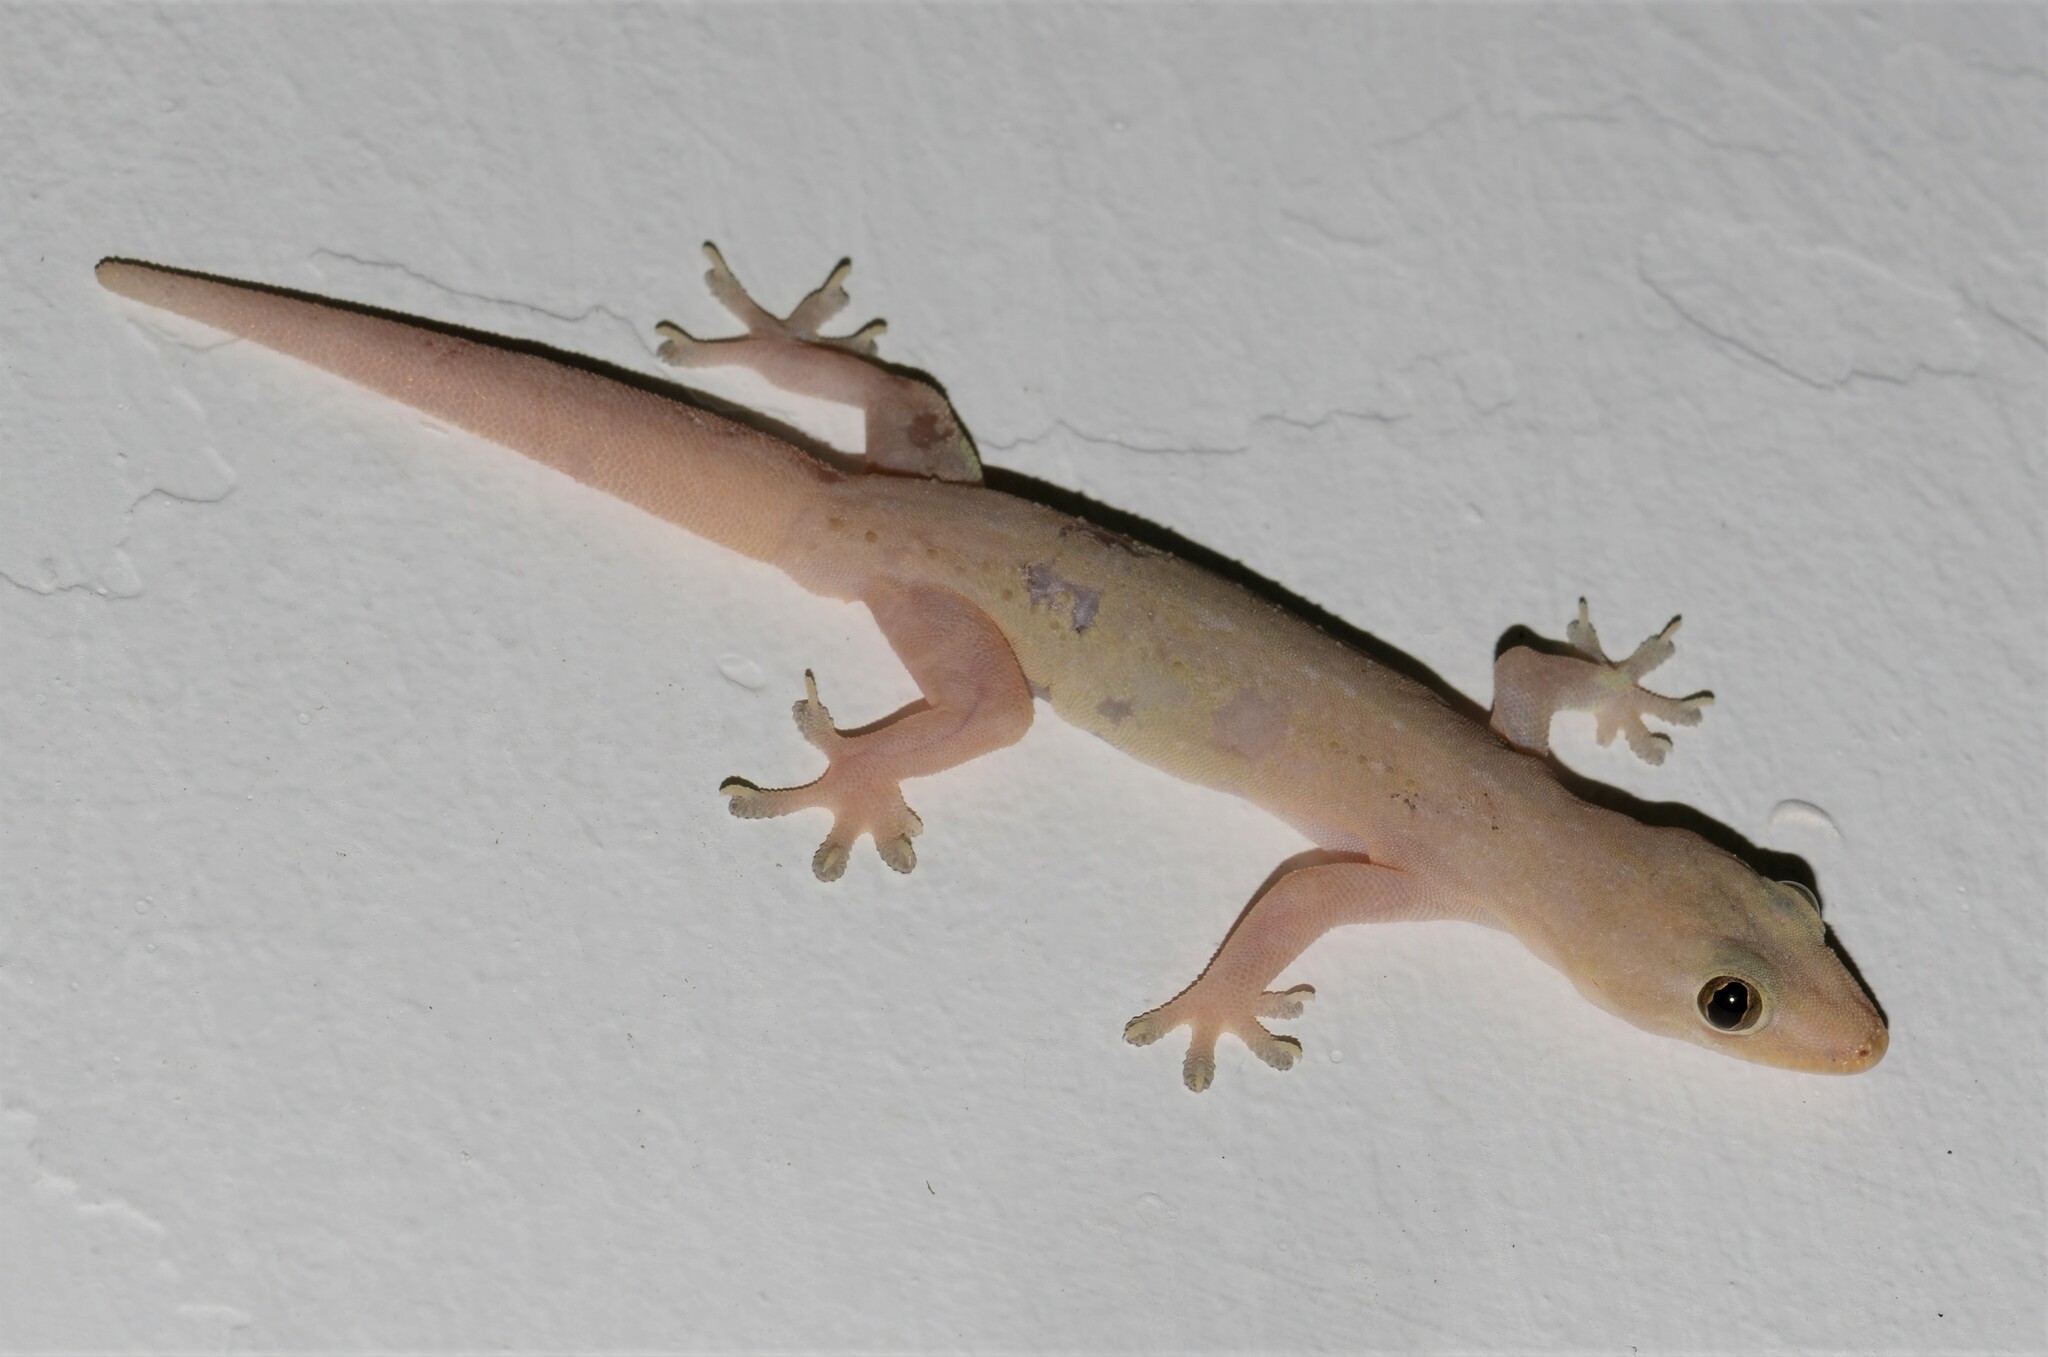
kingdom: Animalia
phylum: Chordata
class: Squamata
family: Gekkonidae
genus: Hemidactylus
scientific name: Hemidactylus frenatus
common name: Common house gecko
